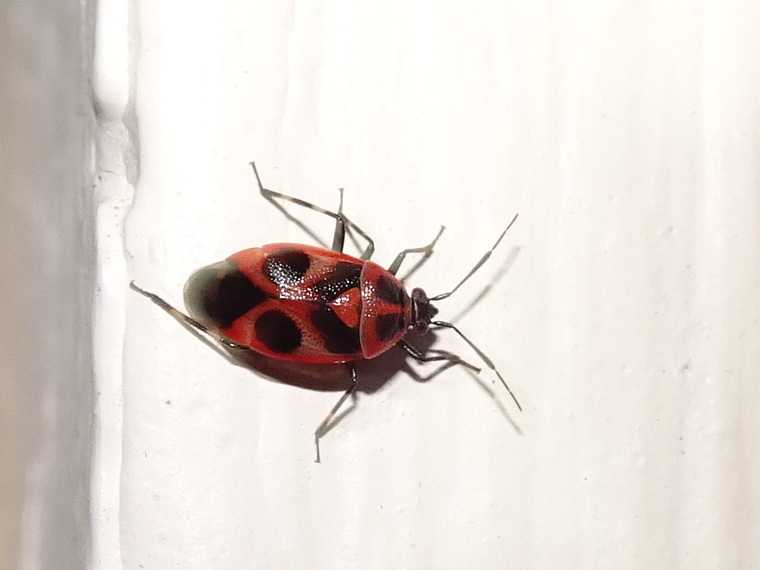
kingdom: Animalia
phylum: Arthropoda
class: Insecta
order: Hemiptera
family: Miridae
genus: Deraeocoris
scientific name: Deraeocoris histrio
